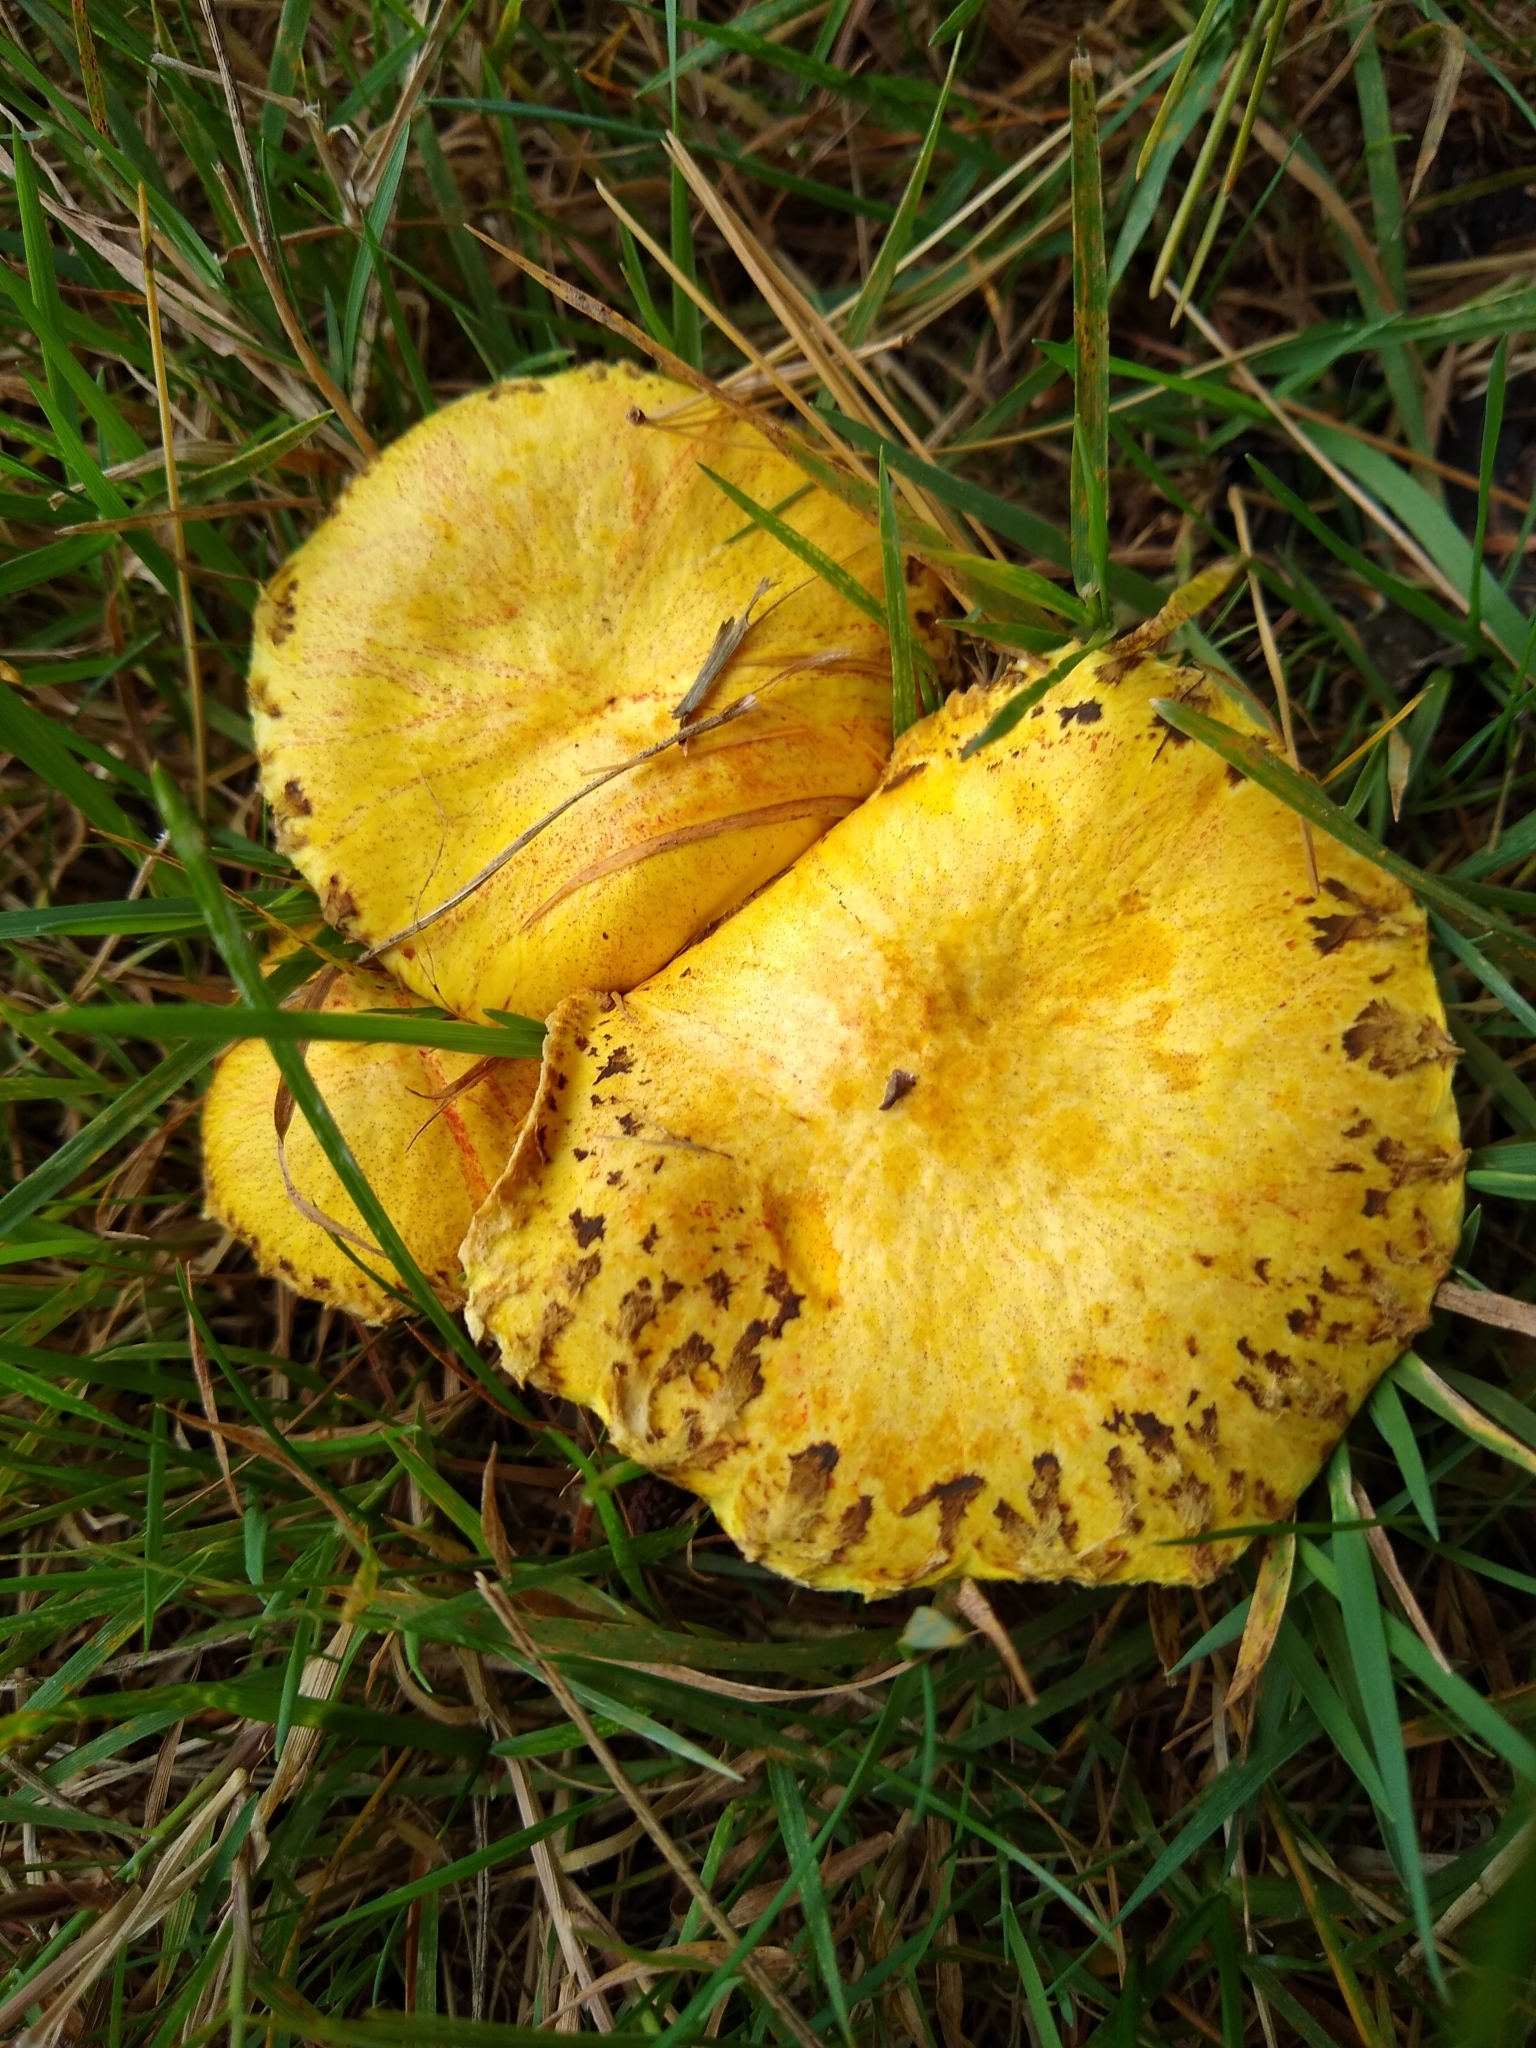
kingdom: Fungi
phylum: Basidiomycota
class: Agaricomycetes
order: Boletales
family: Suillaceae
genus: Suillus
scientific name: Suillus americanus
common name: Chicken fat mushroom
